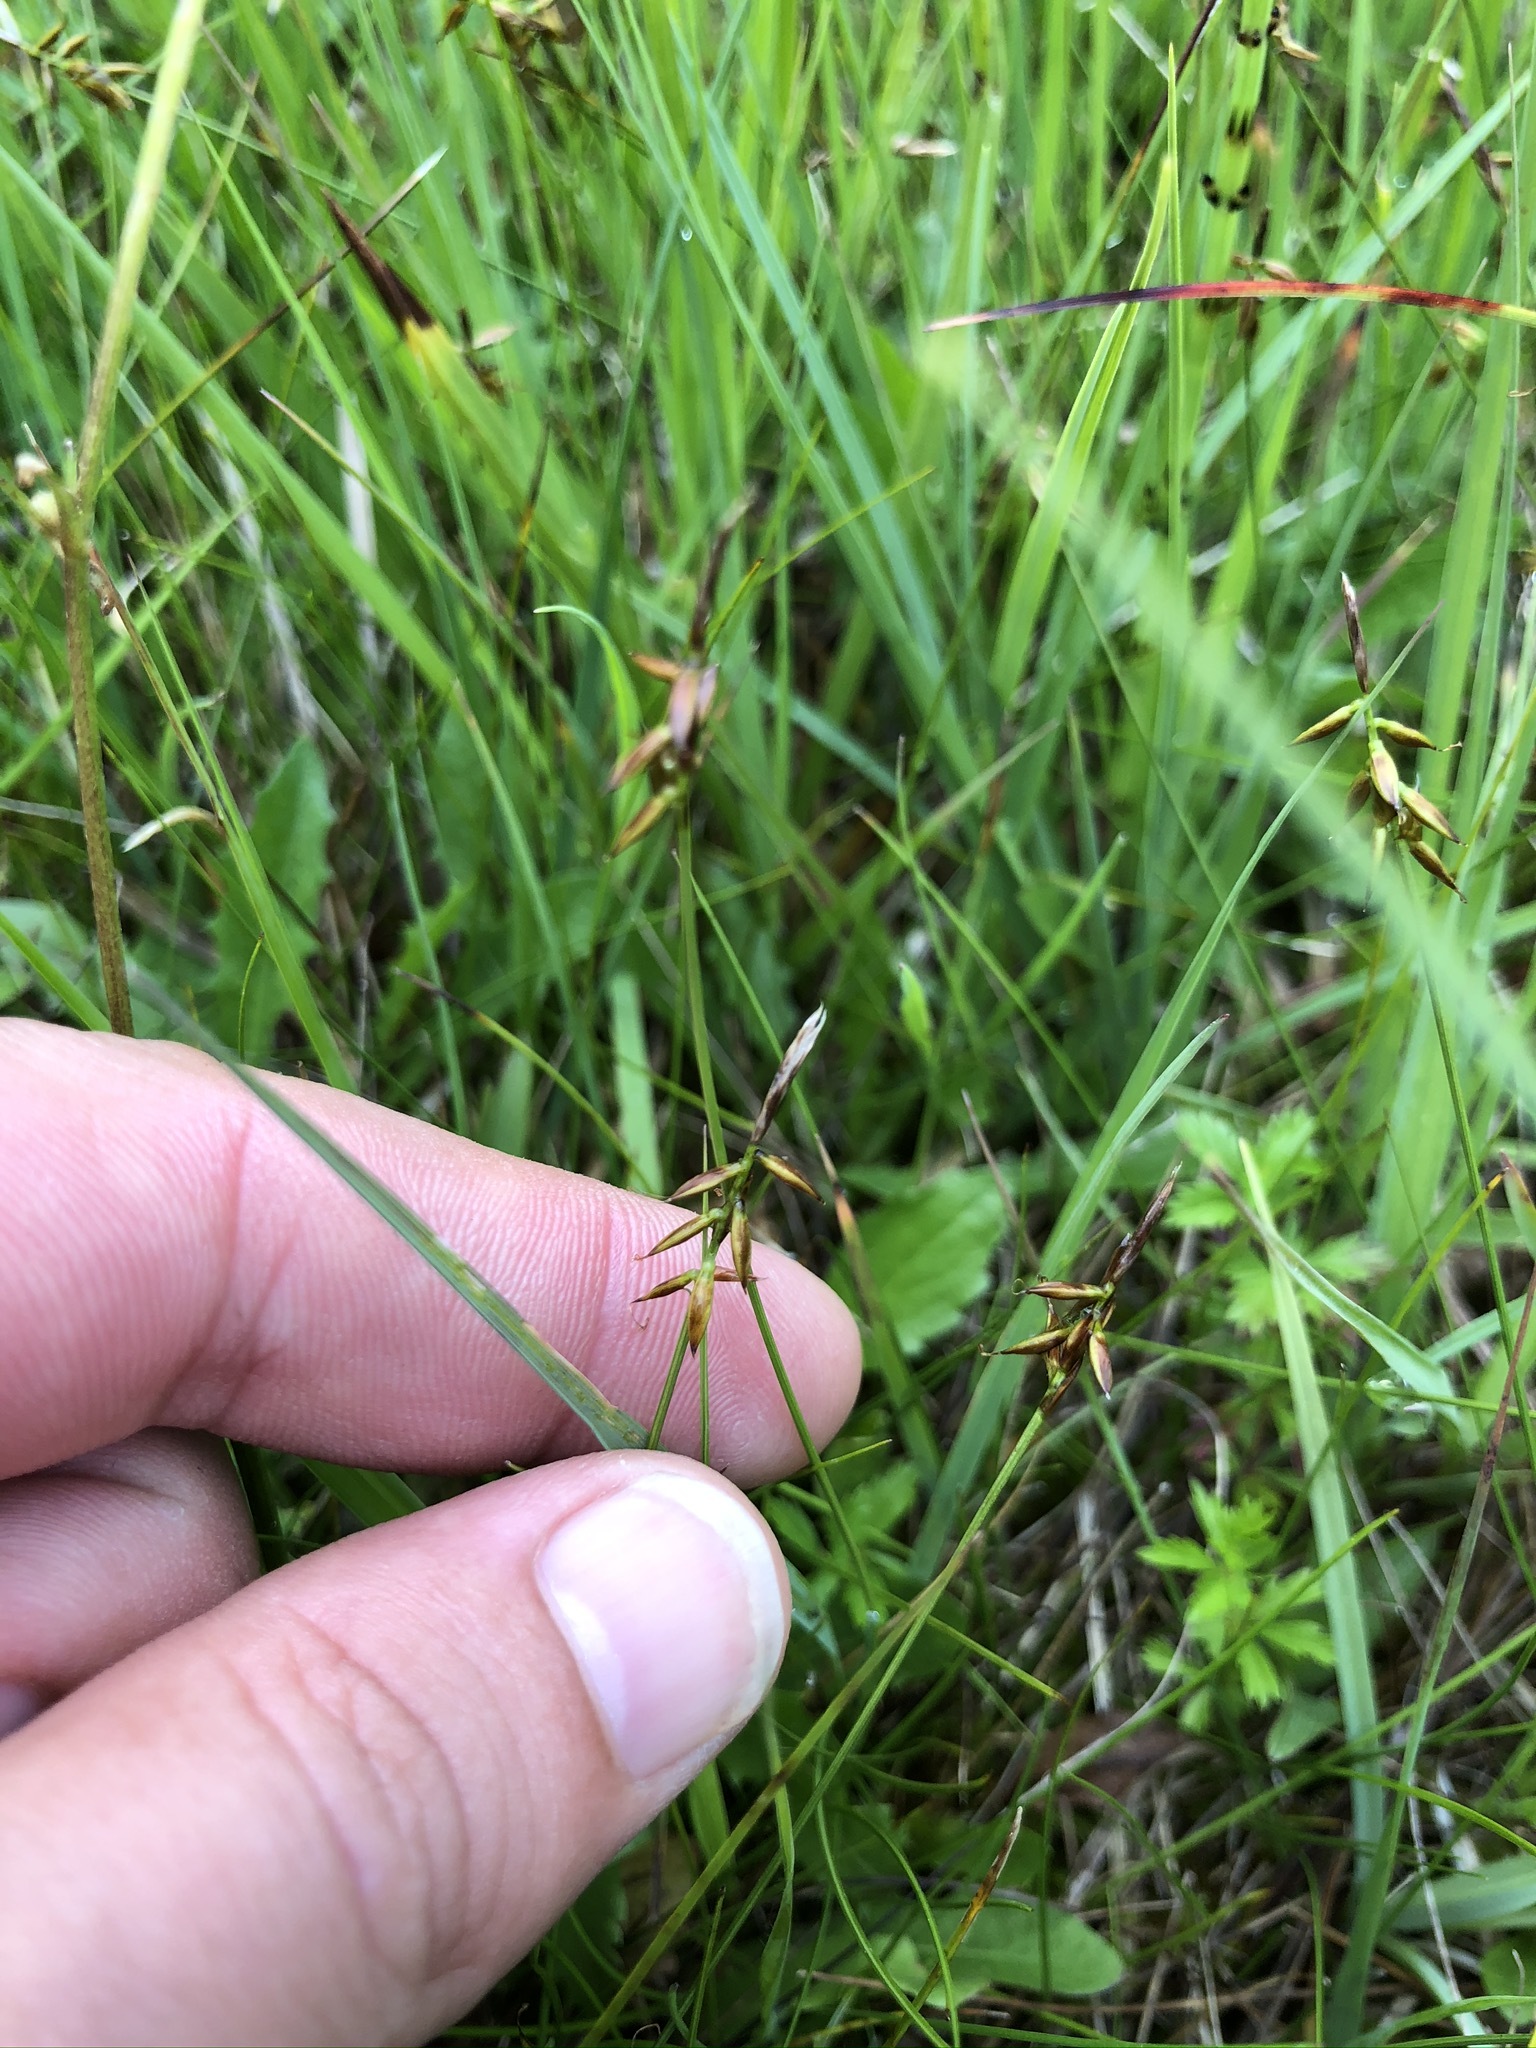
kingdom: Plantae
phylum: Tracheophyta
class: Liliopsida
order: Poales
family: Cyperaceae
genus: Carex
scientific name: Carex pulicaris
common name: Flea sedge
